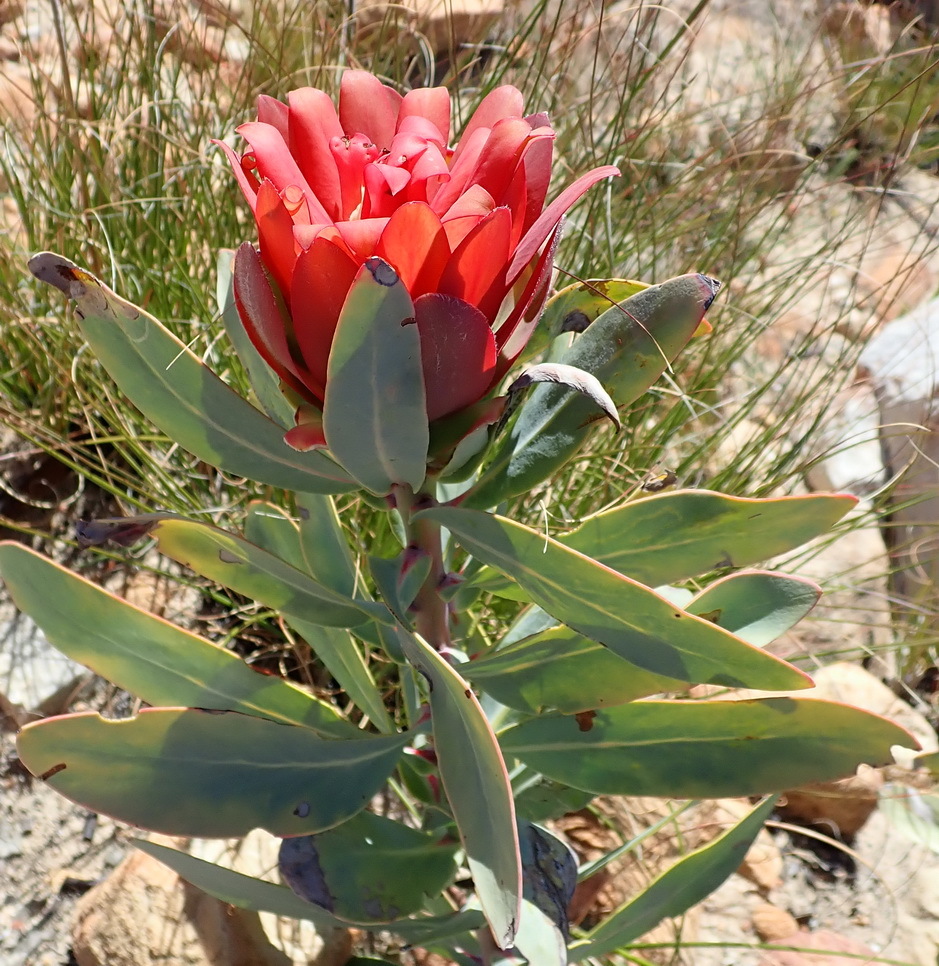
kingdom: Plantae
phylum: Tracheophyta
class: Magnoliopsida
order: Proteales
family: Proteaceae
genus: Protea
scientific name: Protea nitida
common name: Tree protea
